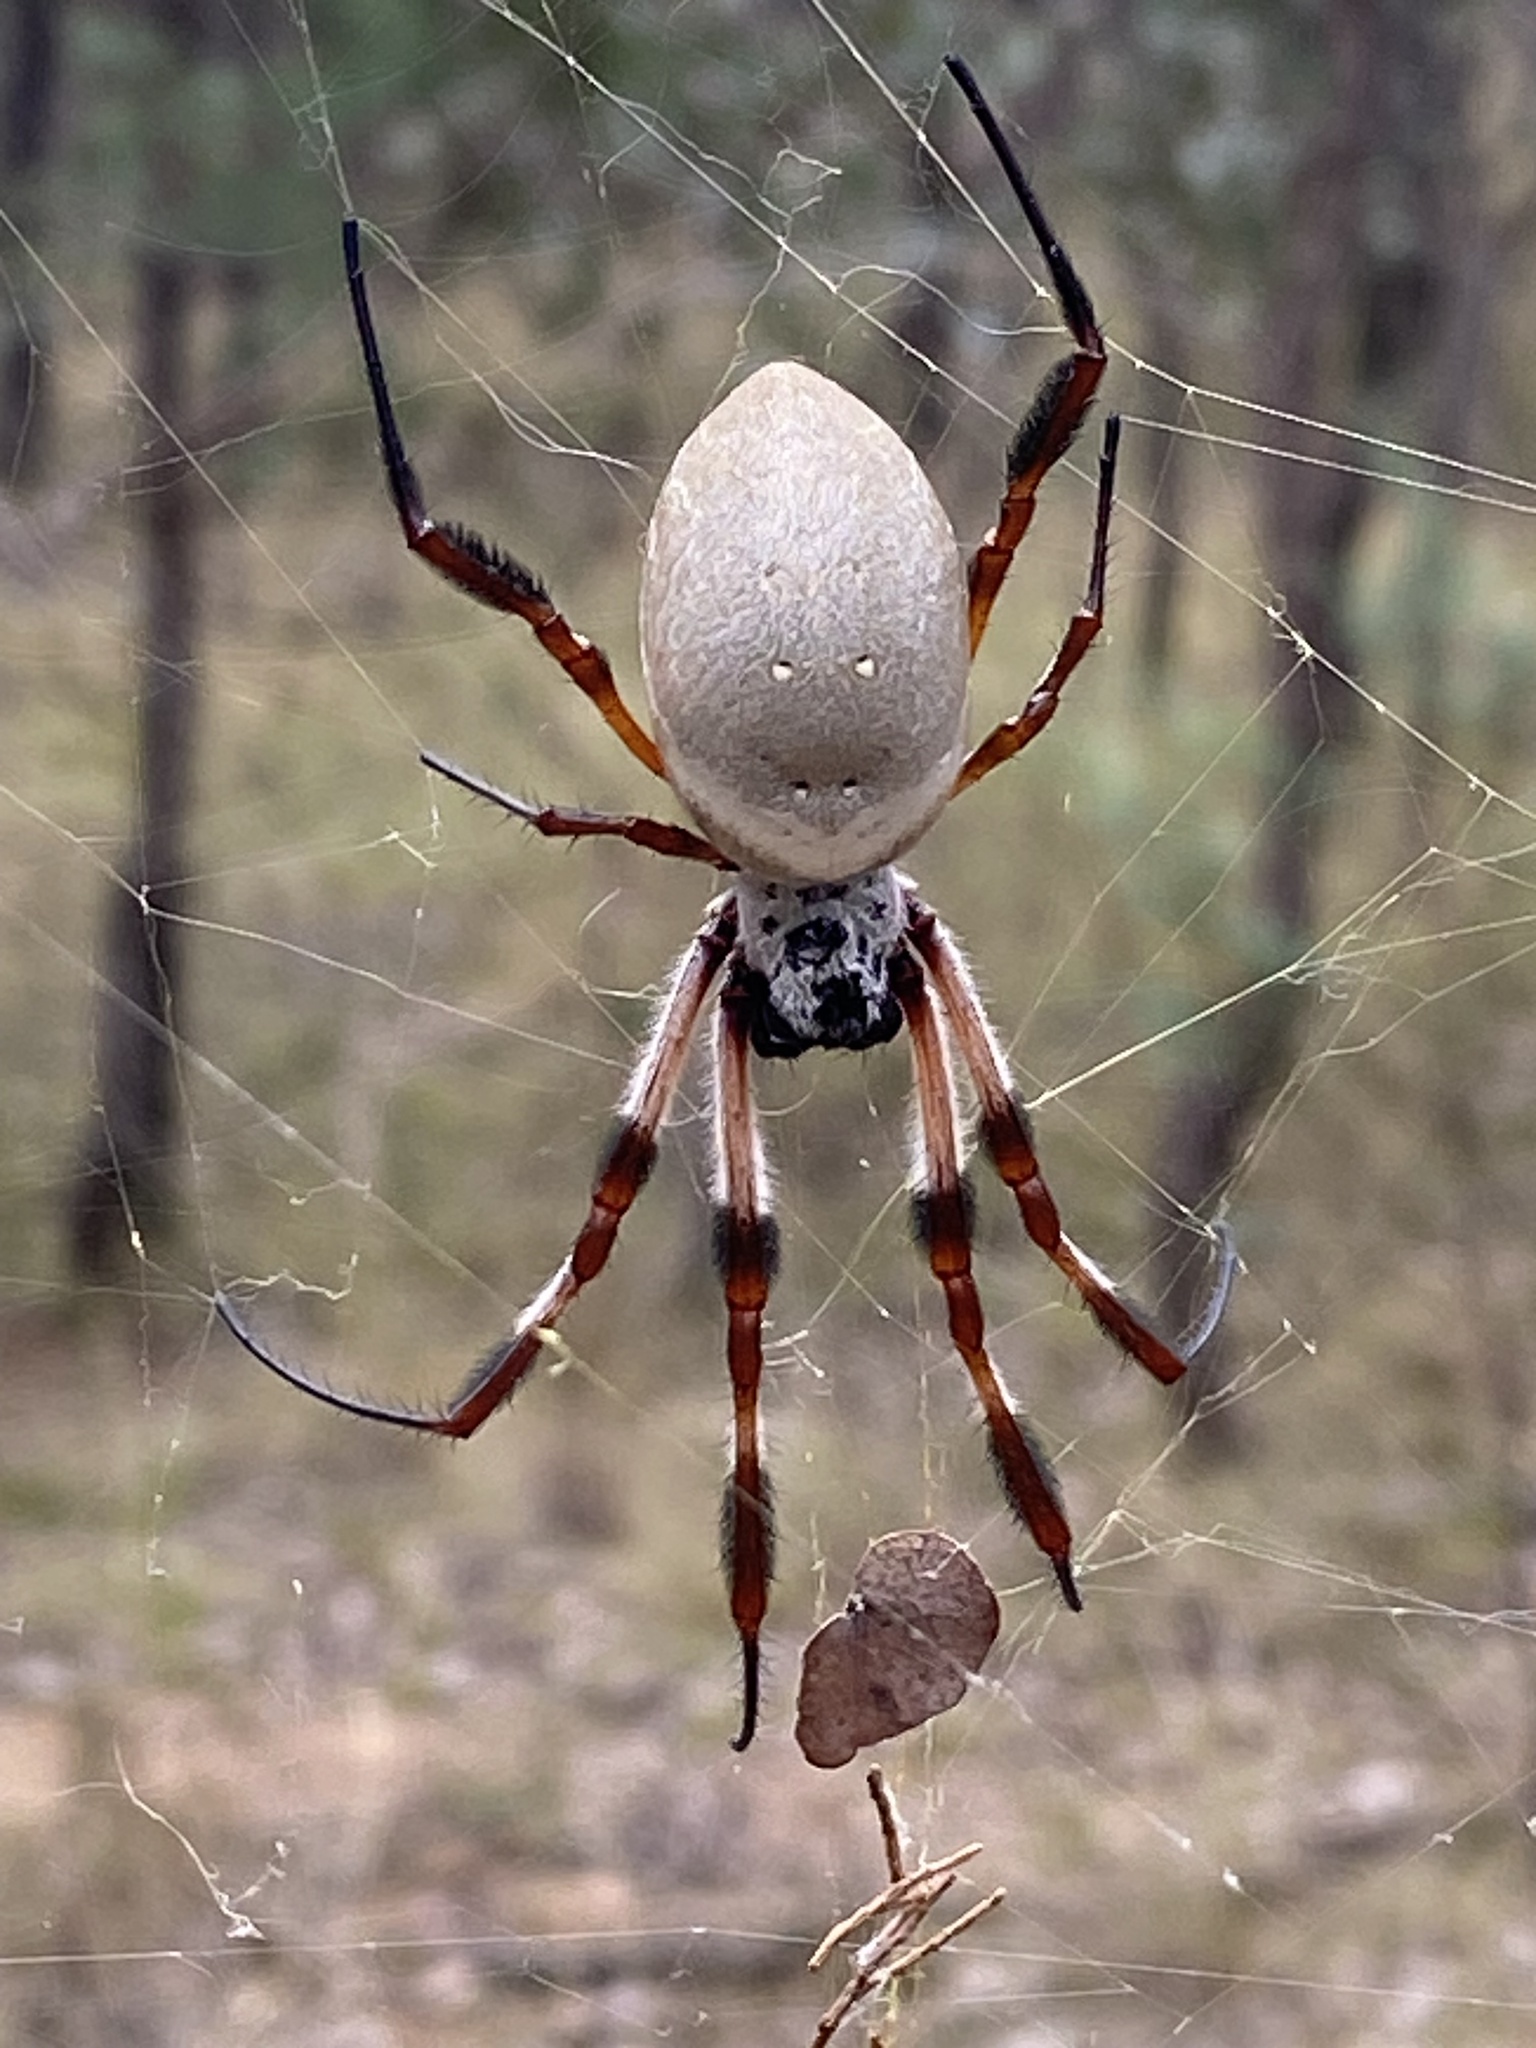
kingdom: Animalia
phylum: Arthropoda
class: Arachnida
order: Araneae
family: Araneidae
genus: Trichonephila
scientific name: Trichonephila edulis
